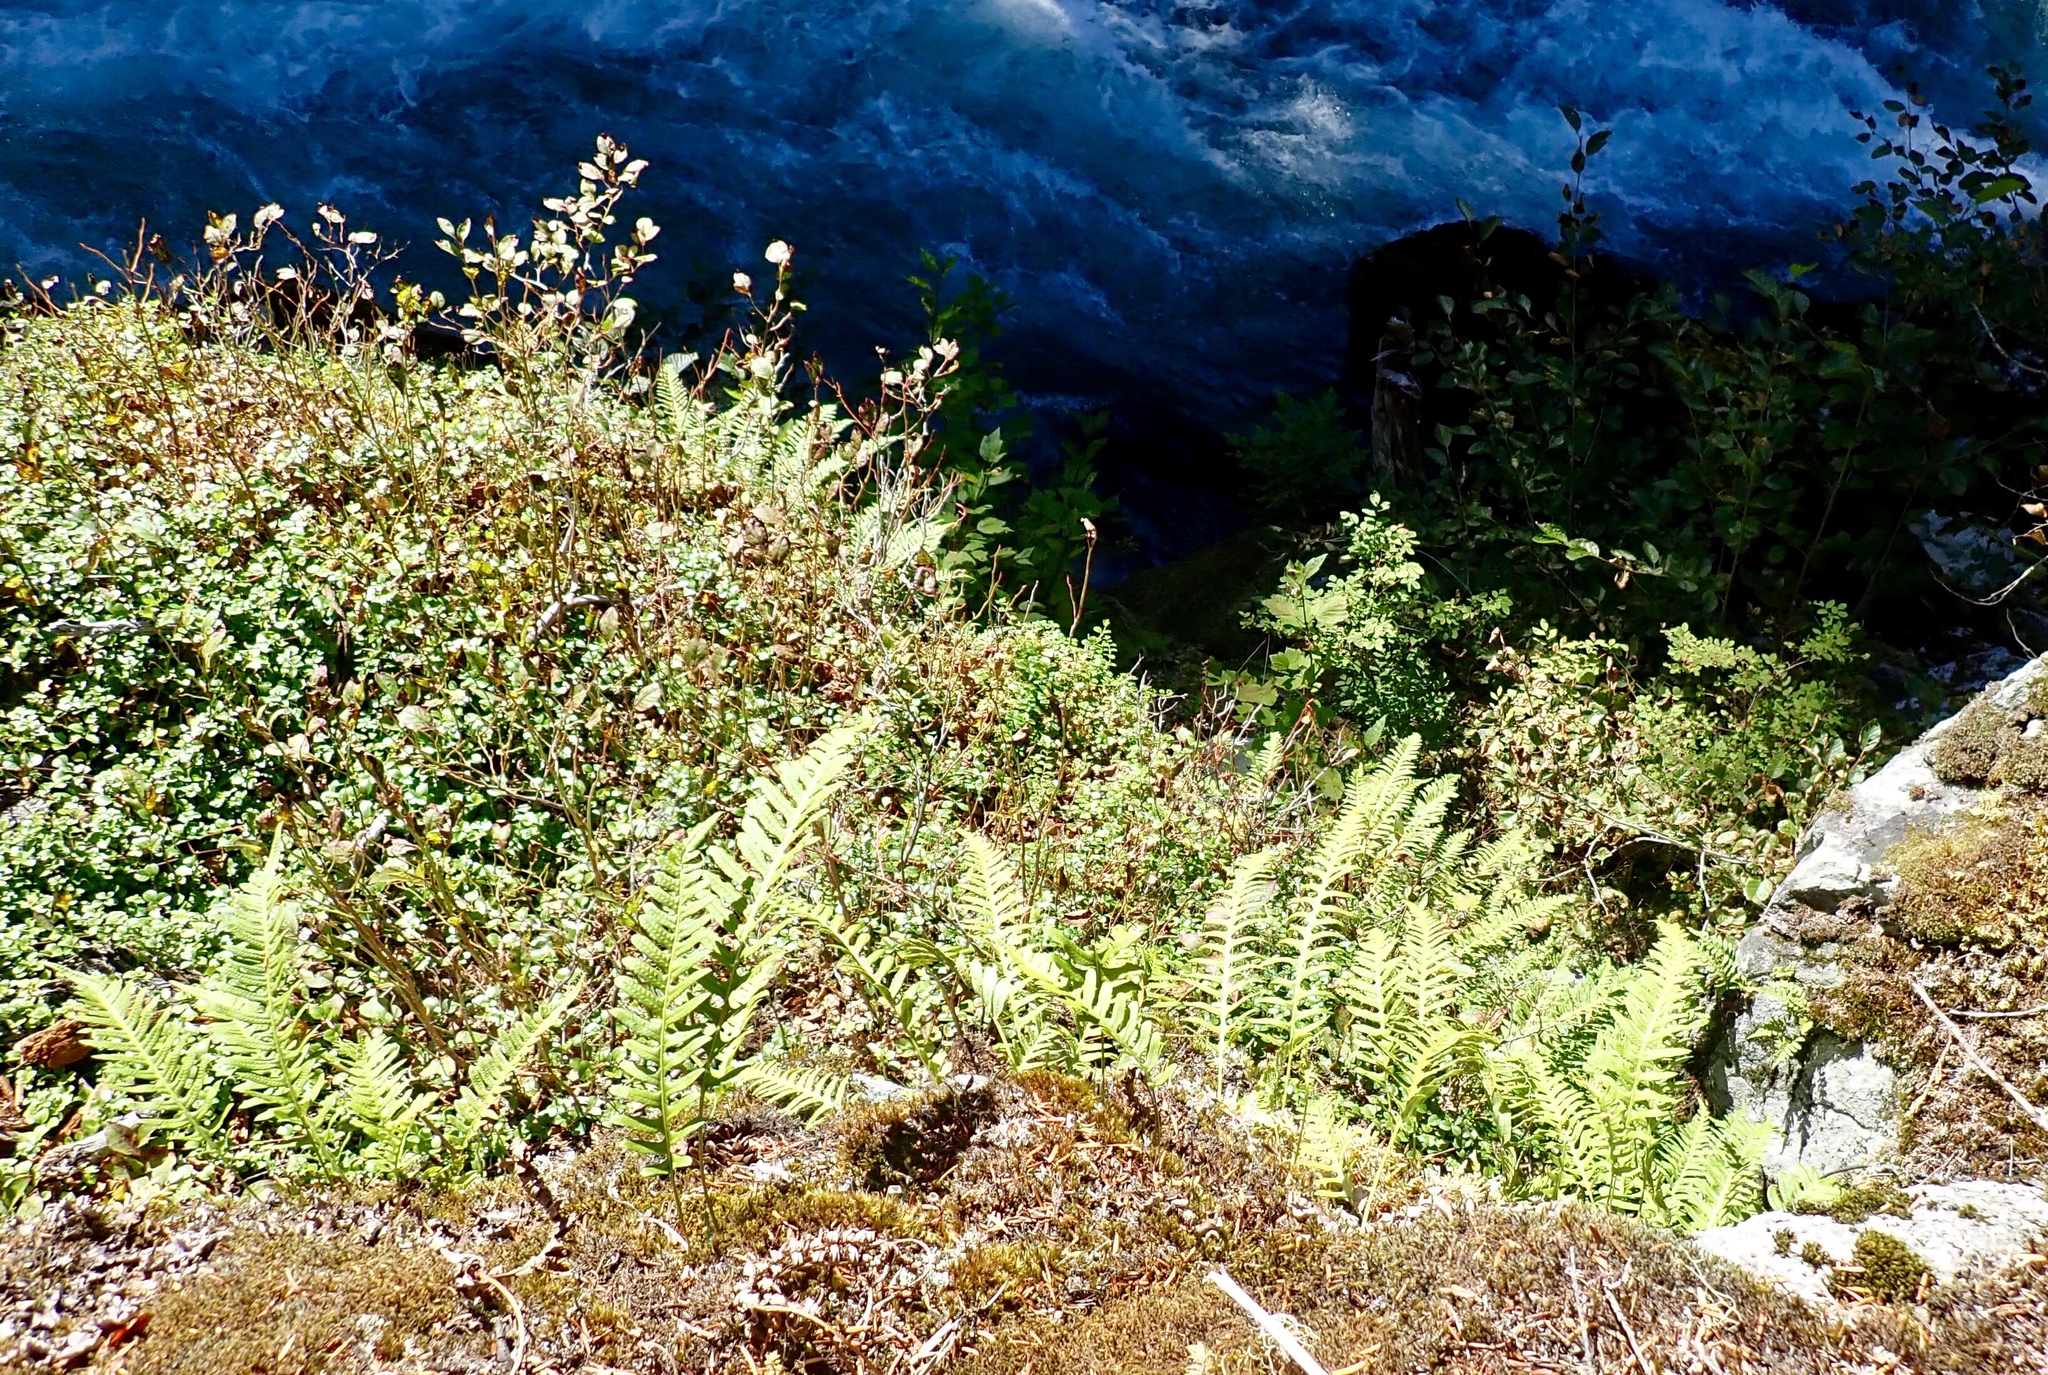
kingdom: Plantae
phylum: Tracheophyta
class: Polypodiopsida
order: Polypodiales
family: Polypodiaceae
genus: Polypodium
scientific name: Polypodium glycyrrhiza
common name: Licorice fern
